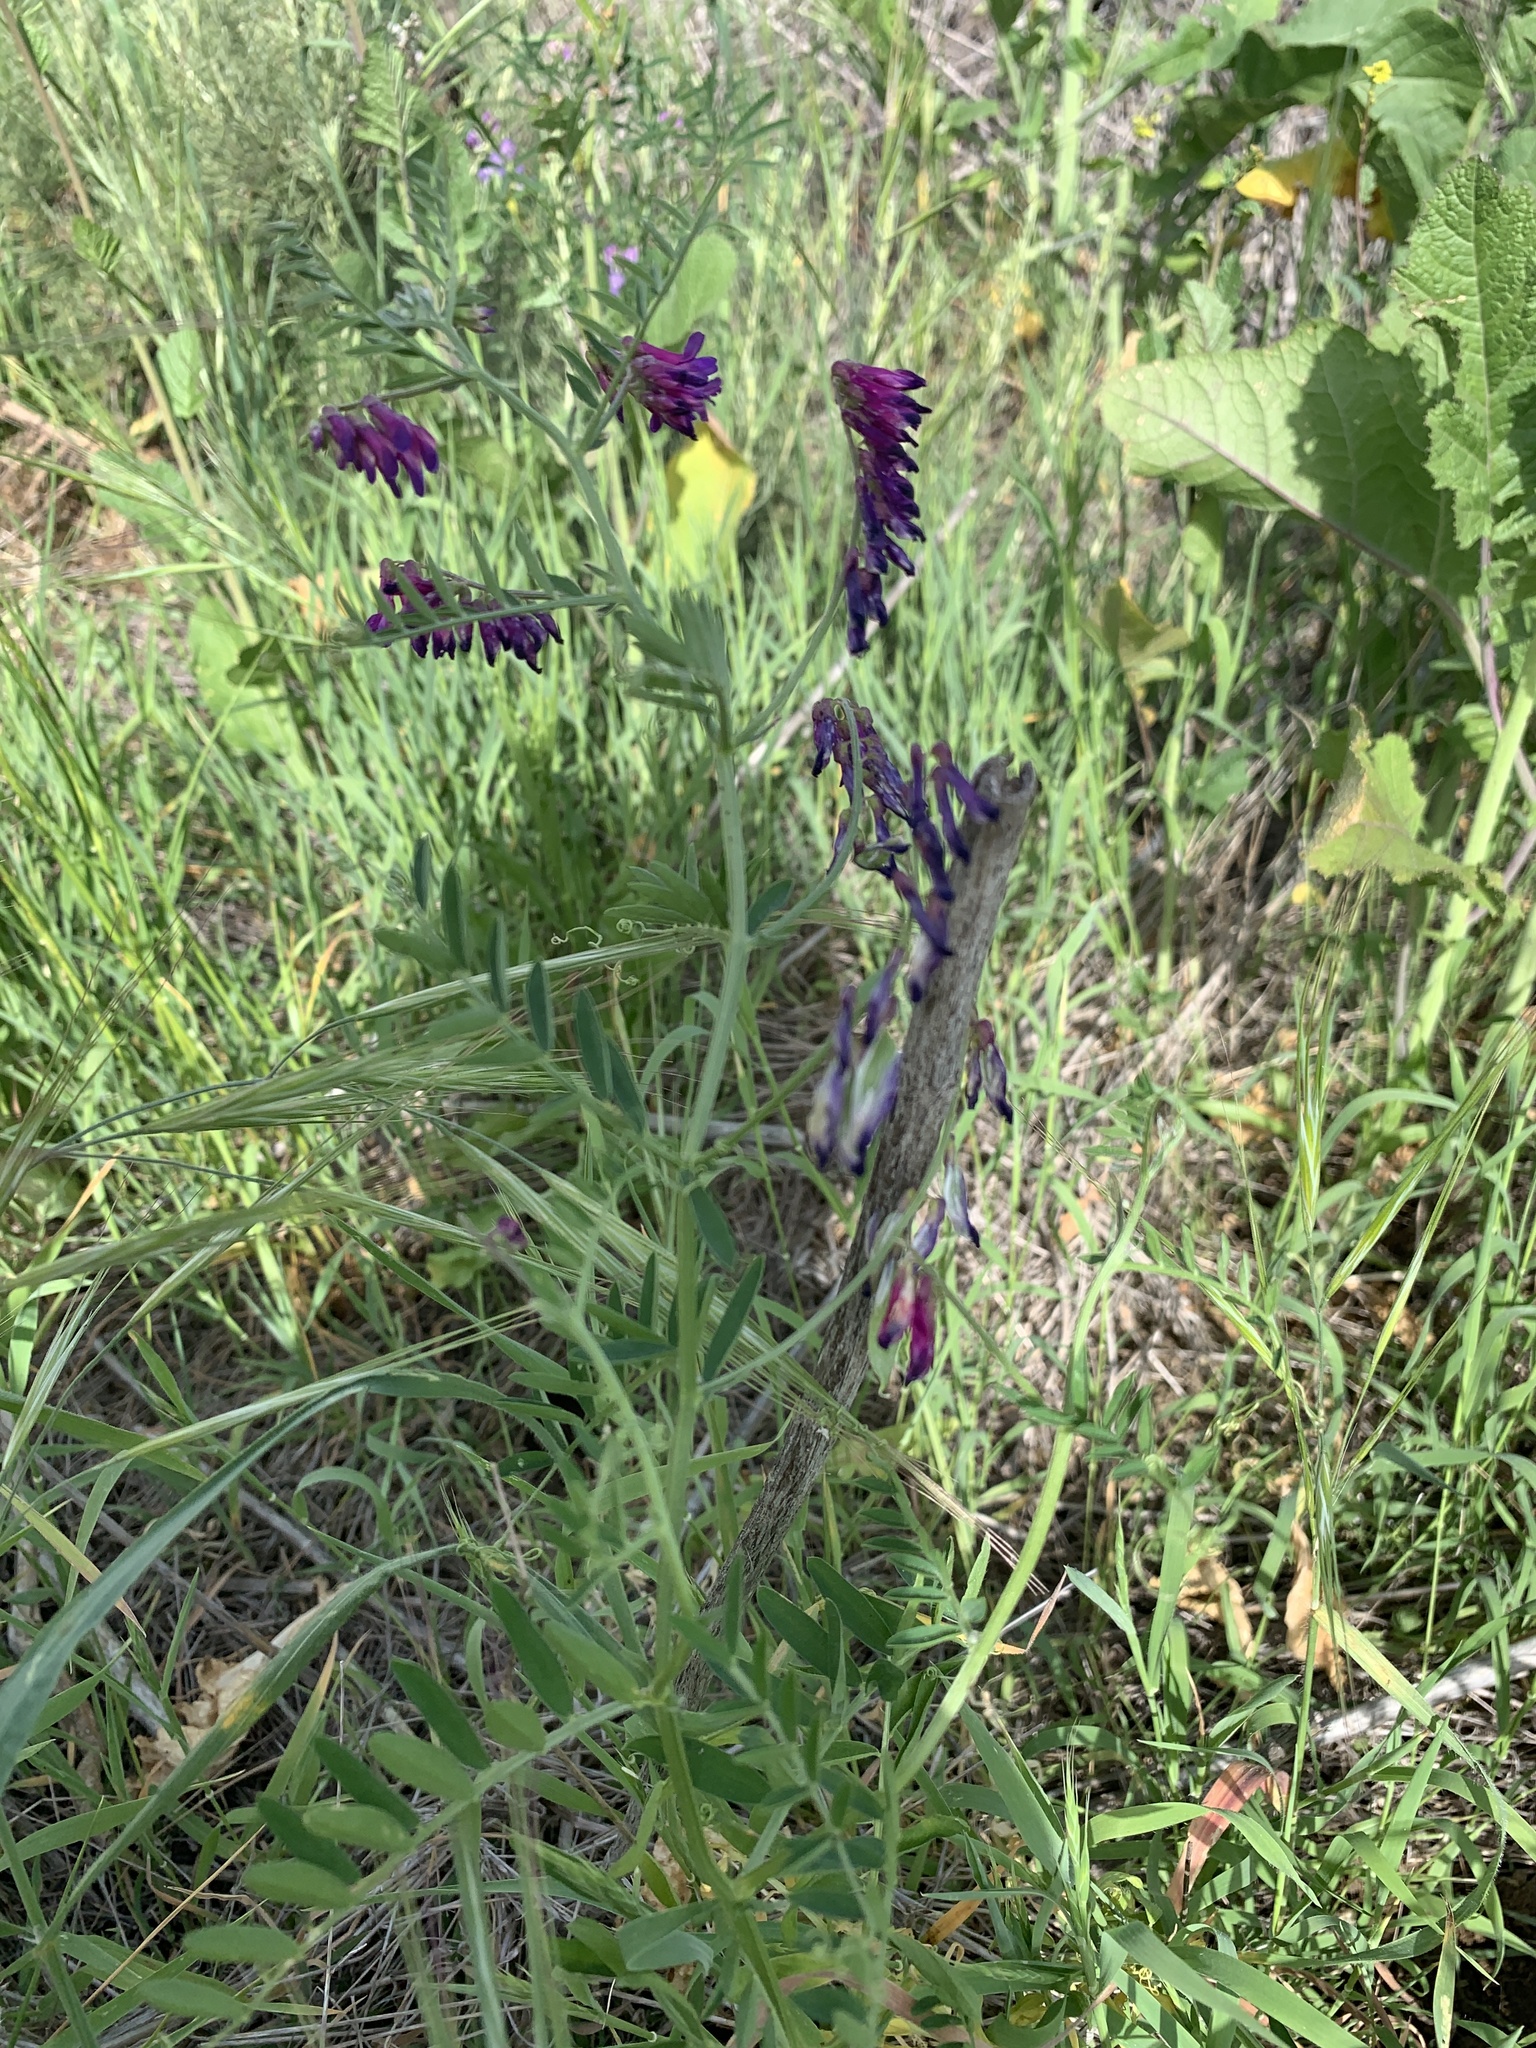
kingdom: Plantae
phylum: Tracheophyta
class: Magnoliopsida
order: Fabales
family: Fabaceae
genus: Vicia
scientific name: Vicia villosa
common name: Fodder vetch
